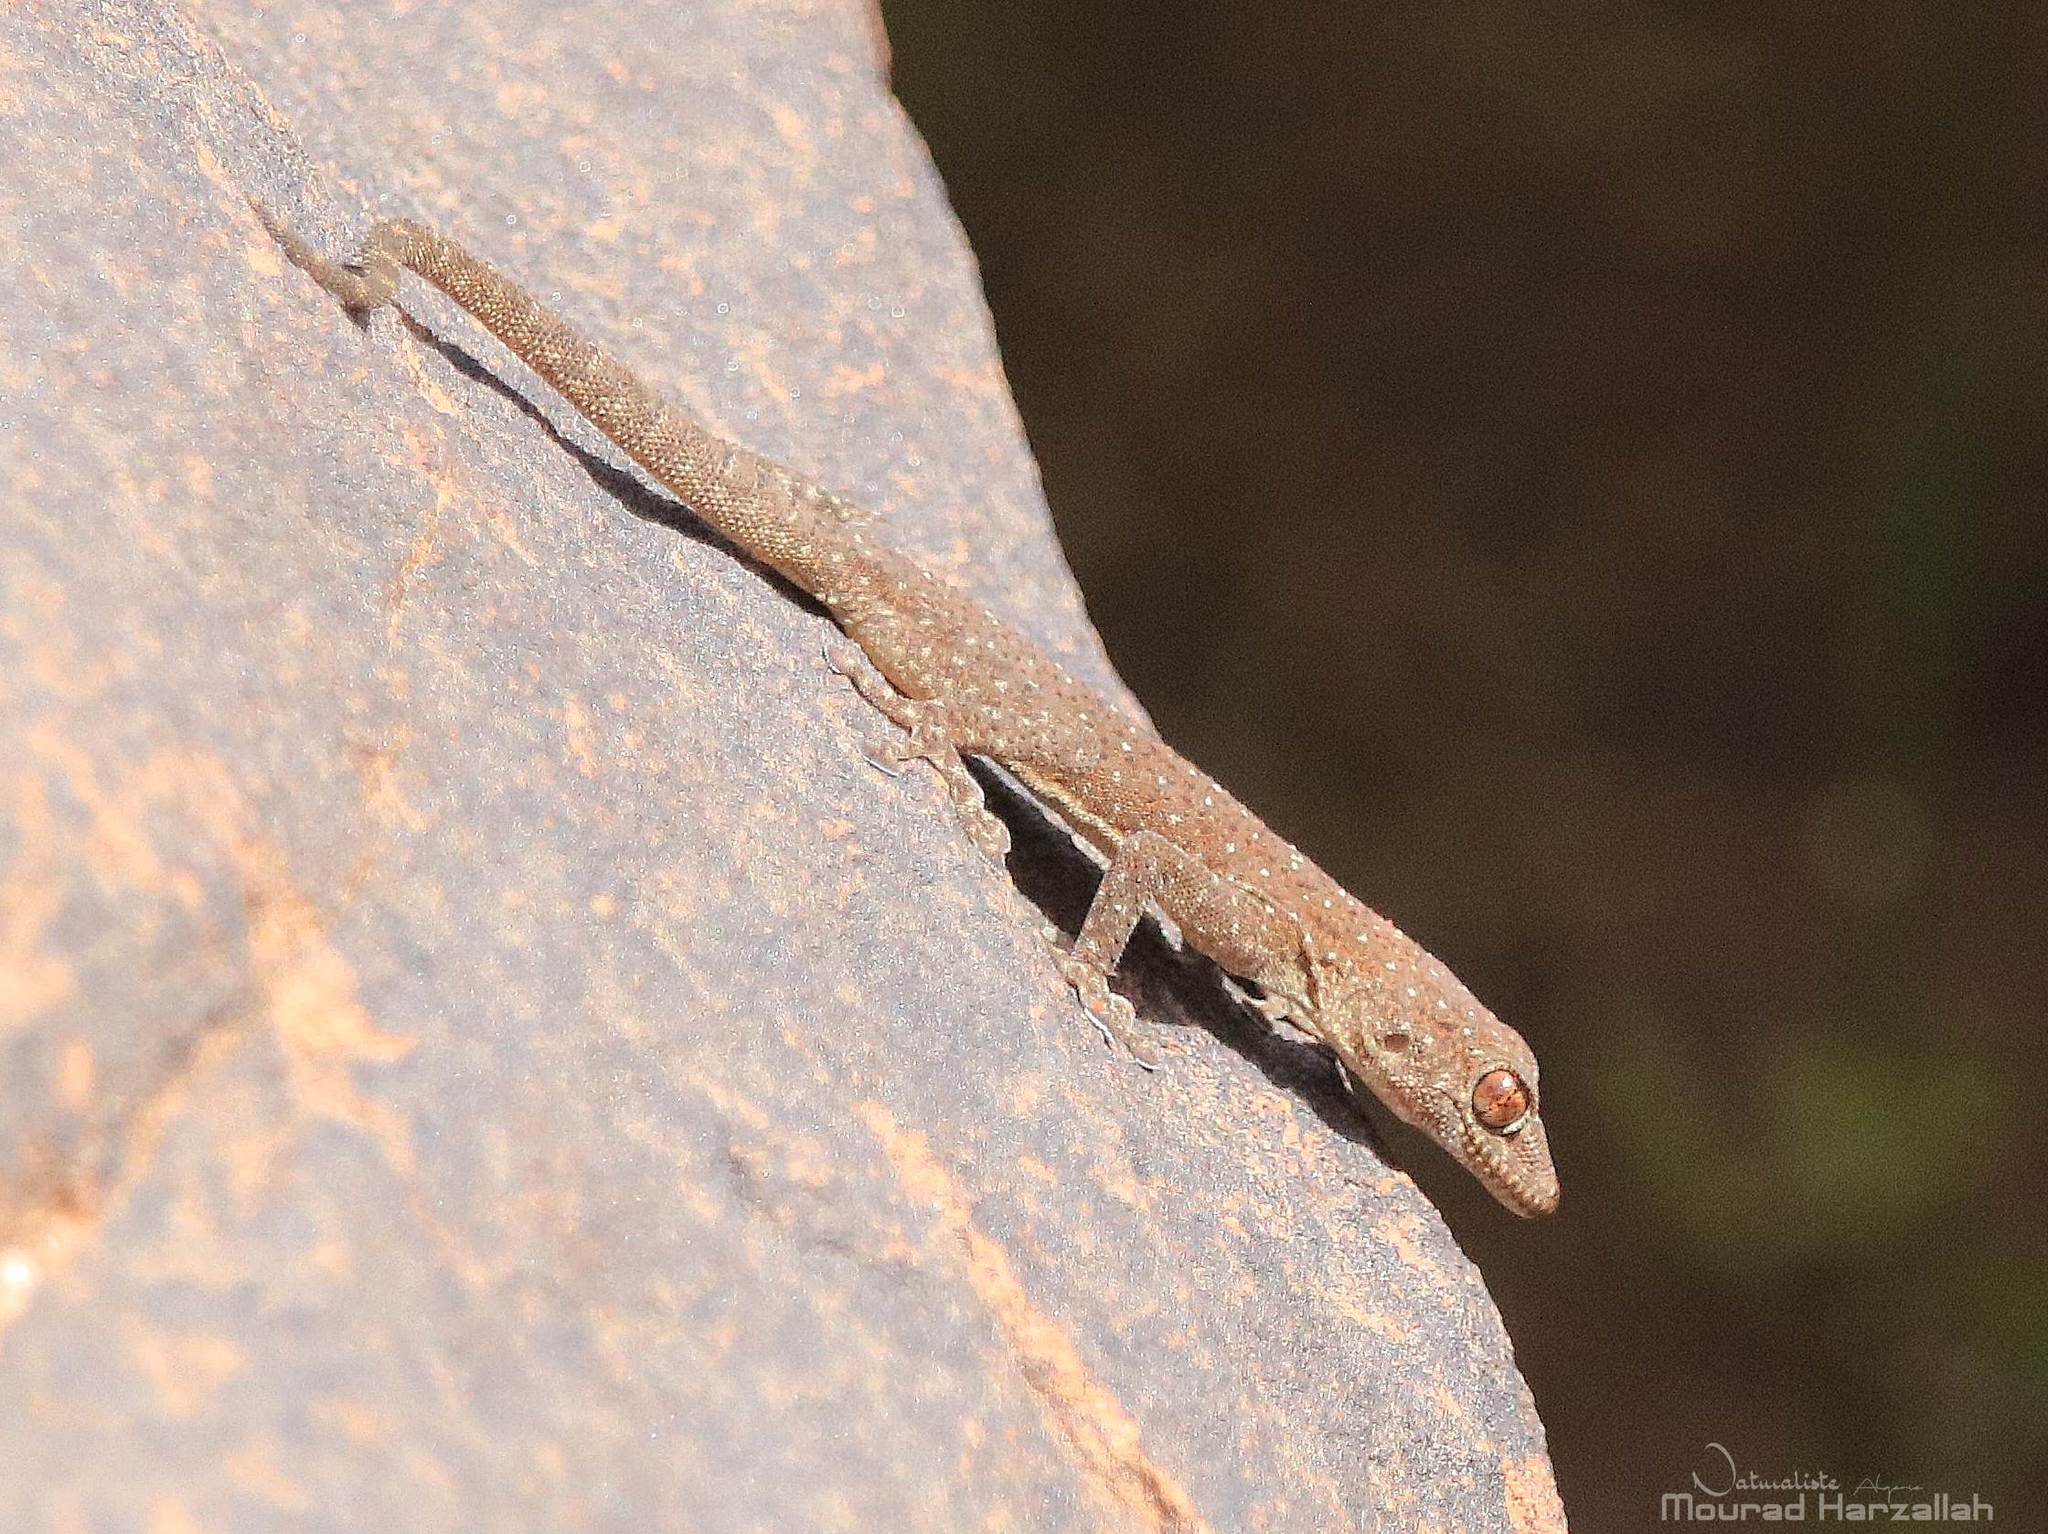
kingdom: Animalia
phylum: Chordata
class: Squamata
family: Phyllodactylidae
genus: Ptyodactylus
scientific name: Ptyodactylus oudrii
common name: Algerian fan-fingered gecko
